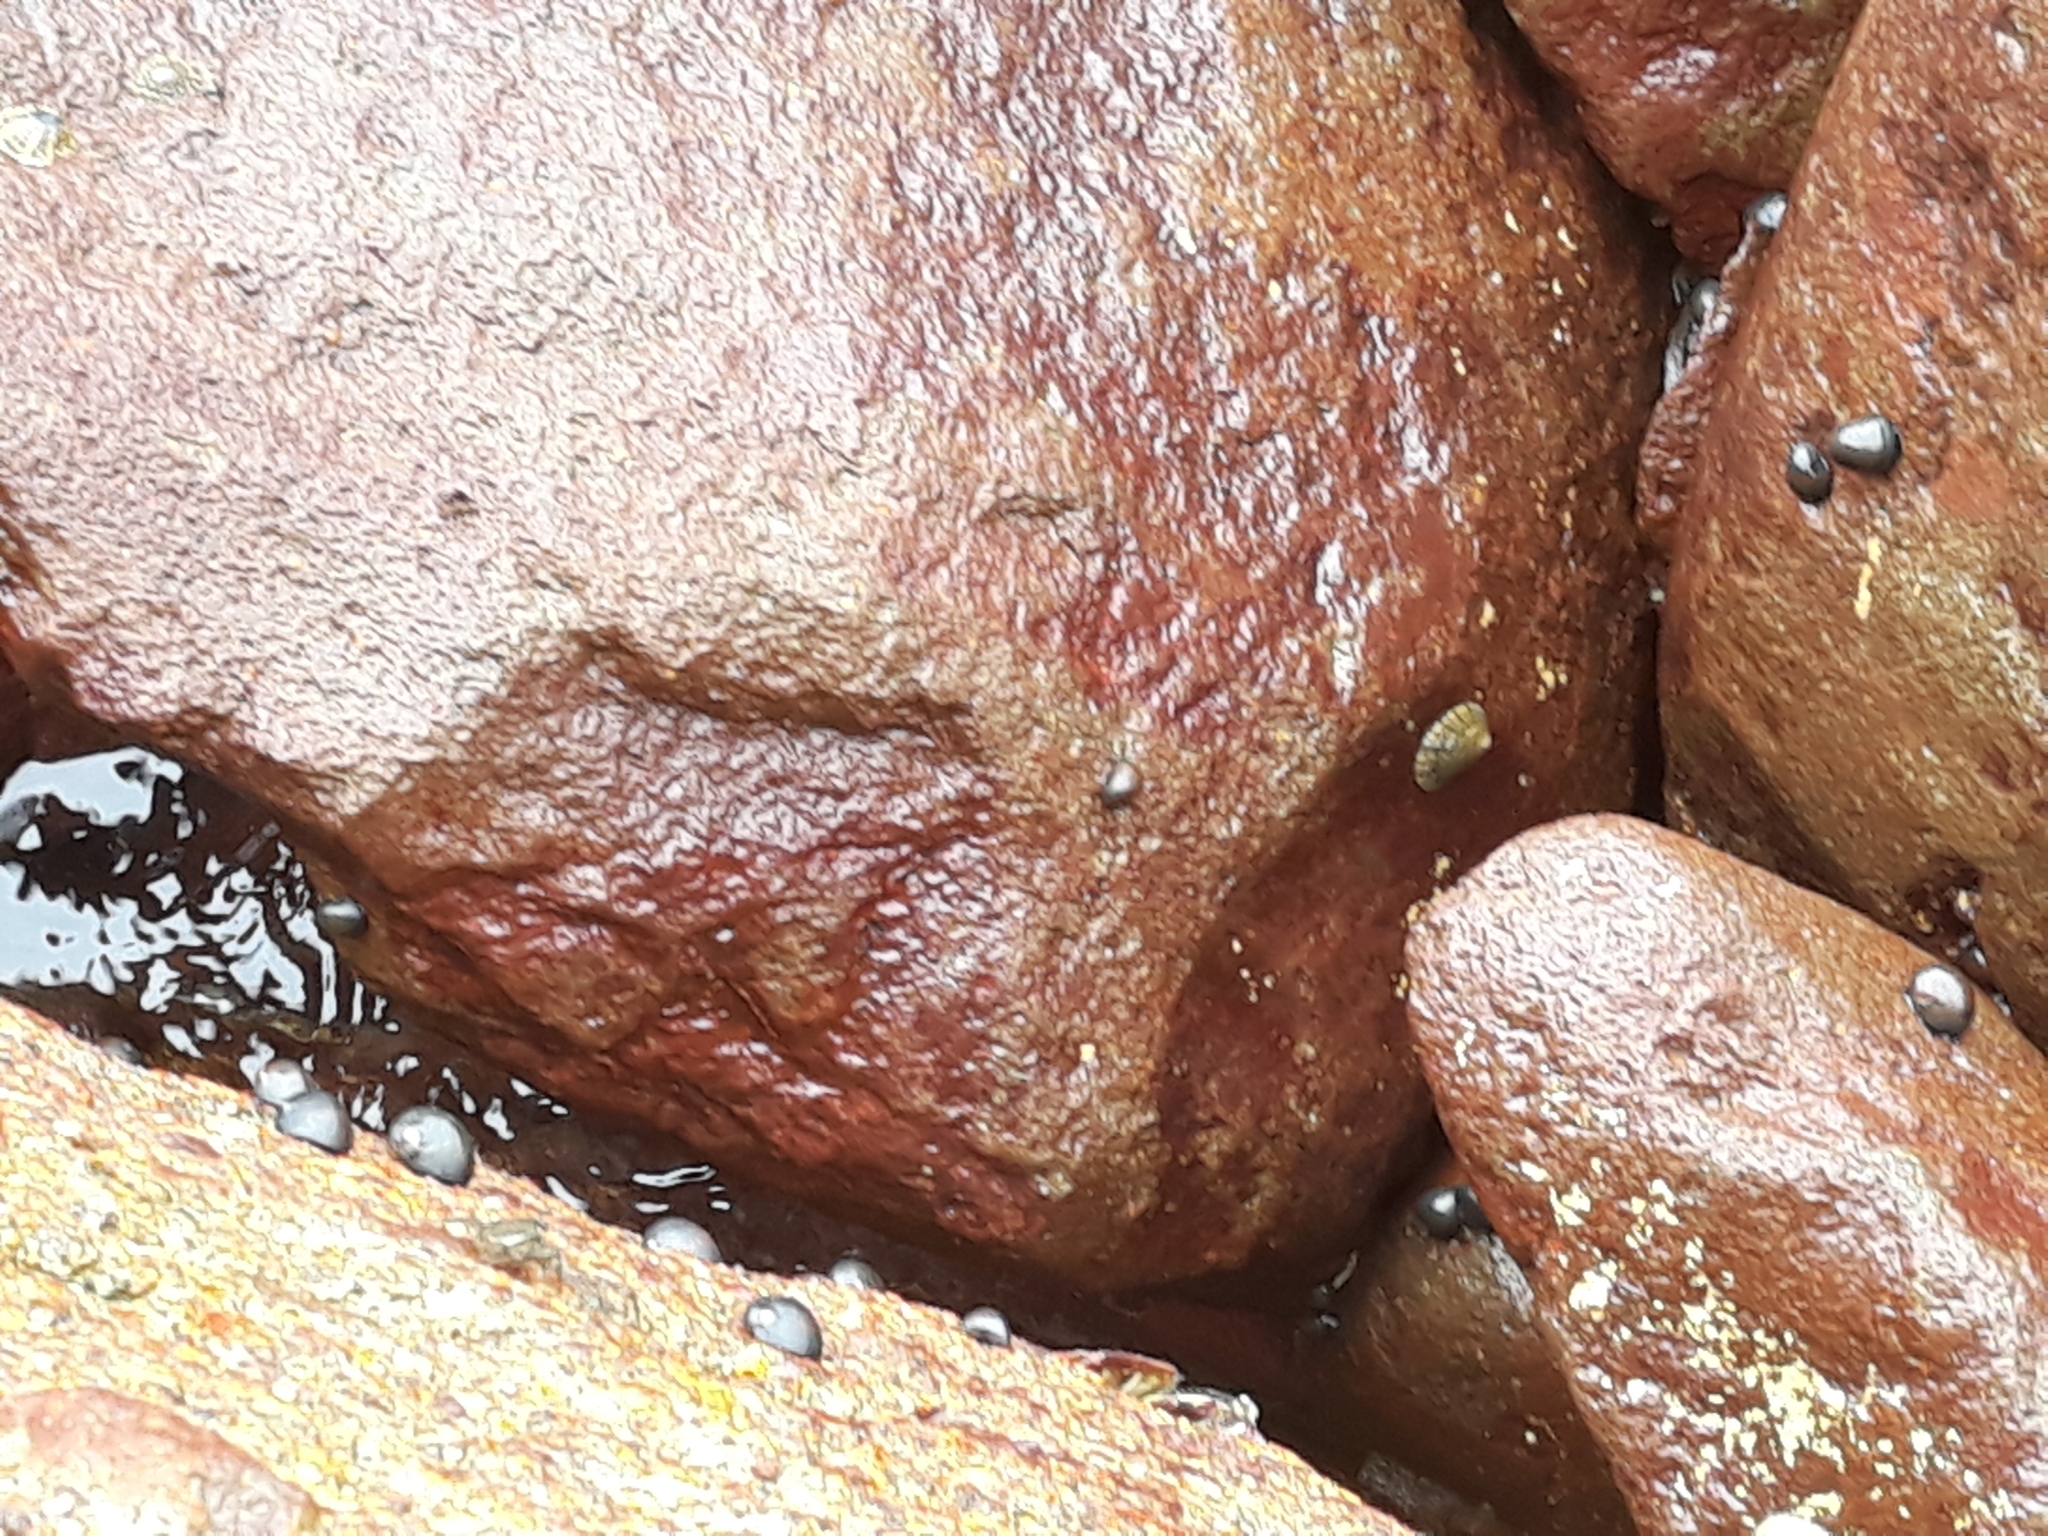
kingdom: Animalia
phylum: Arthropoda
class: Malacostraca
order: Decapoda
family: Grapsidae
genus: Leptograpsus
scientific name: Leptograpsus variegatus
